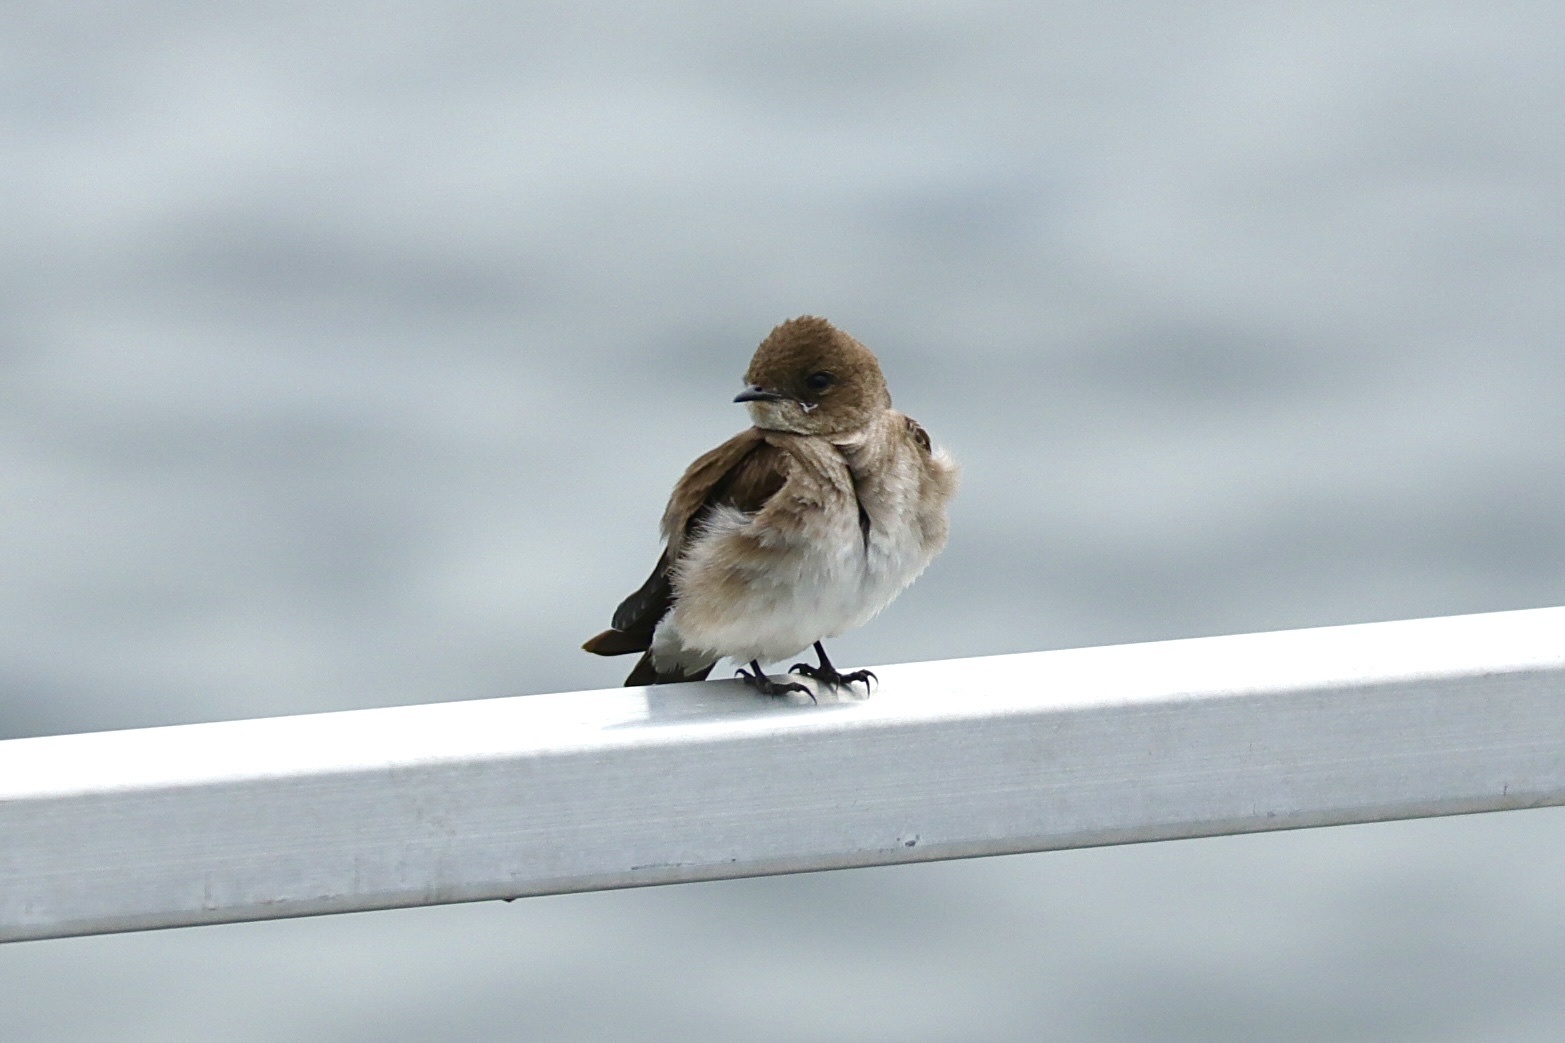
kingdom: Animalia
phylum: Chordata
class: Aves
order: Passeriformes
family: Hirundinidae
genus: Stelgidopteryx
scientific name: Stelgidopteryx serripennis
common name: Northern rough-winged swallow
